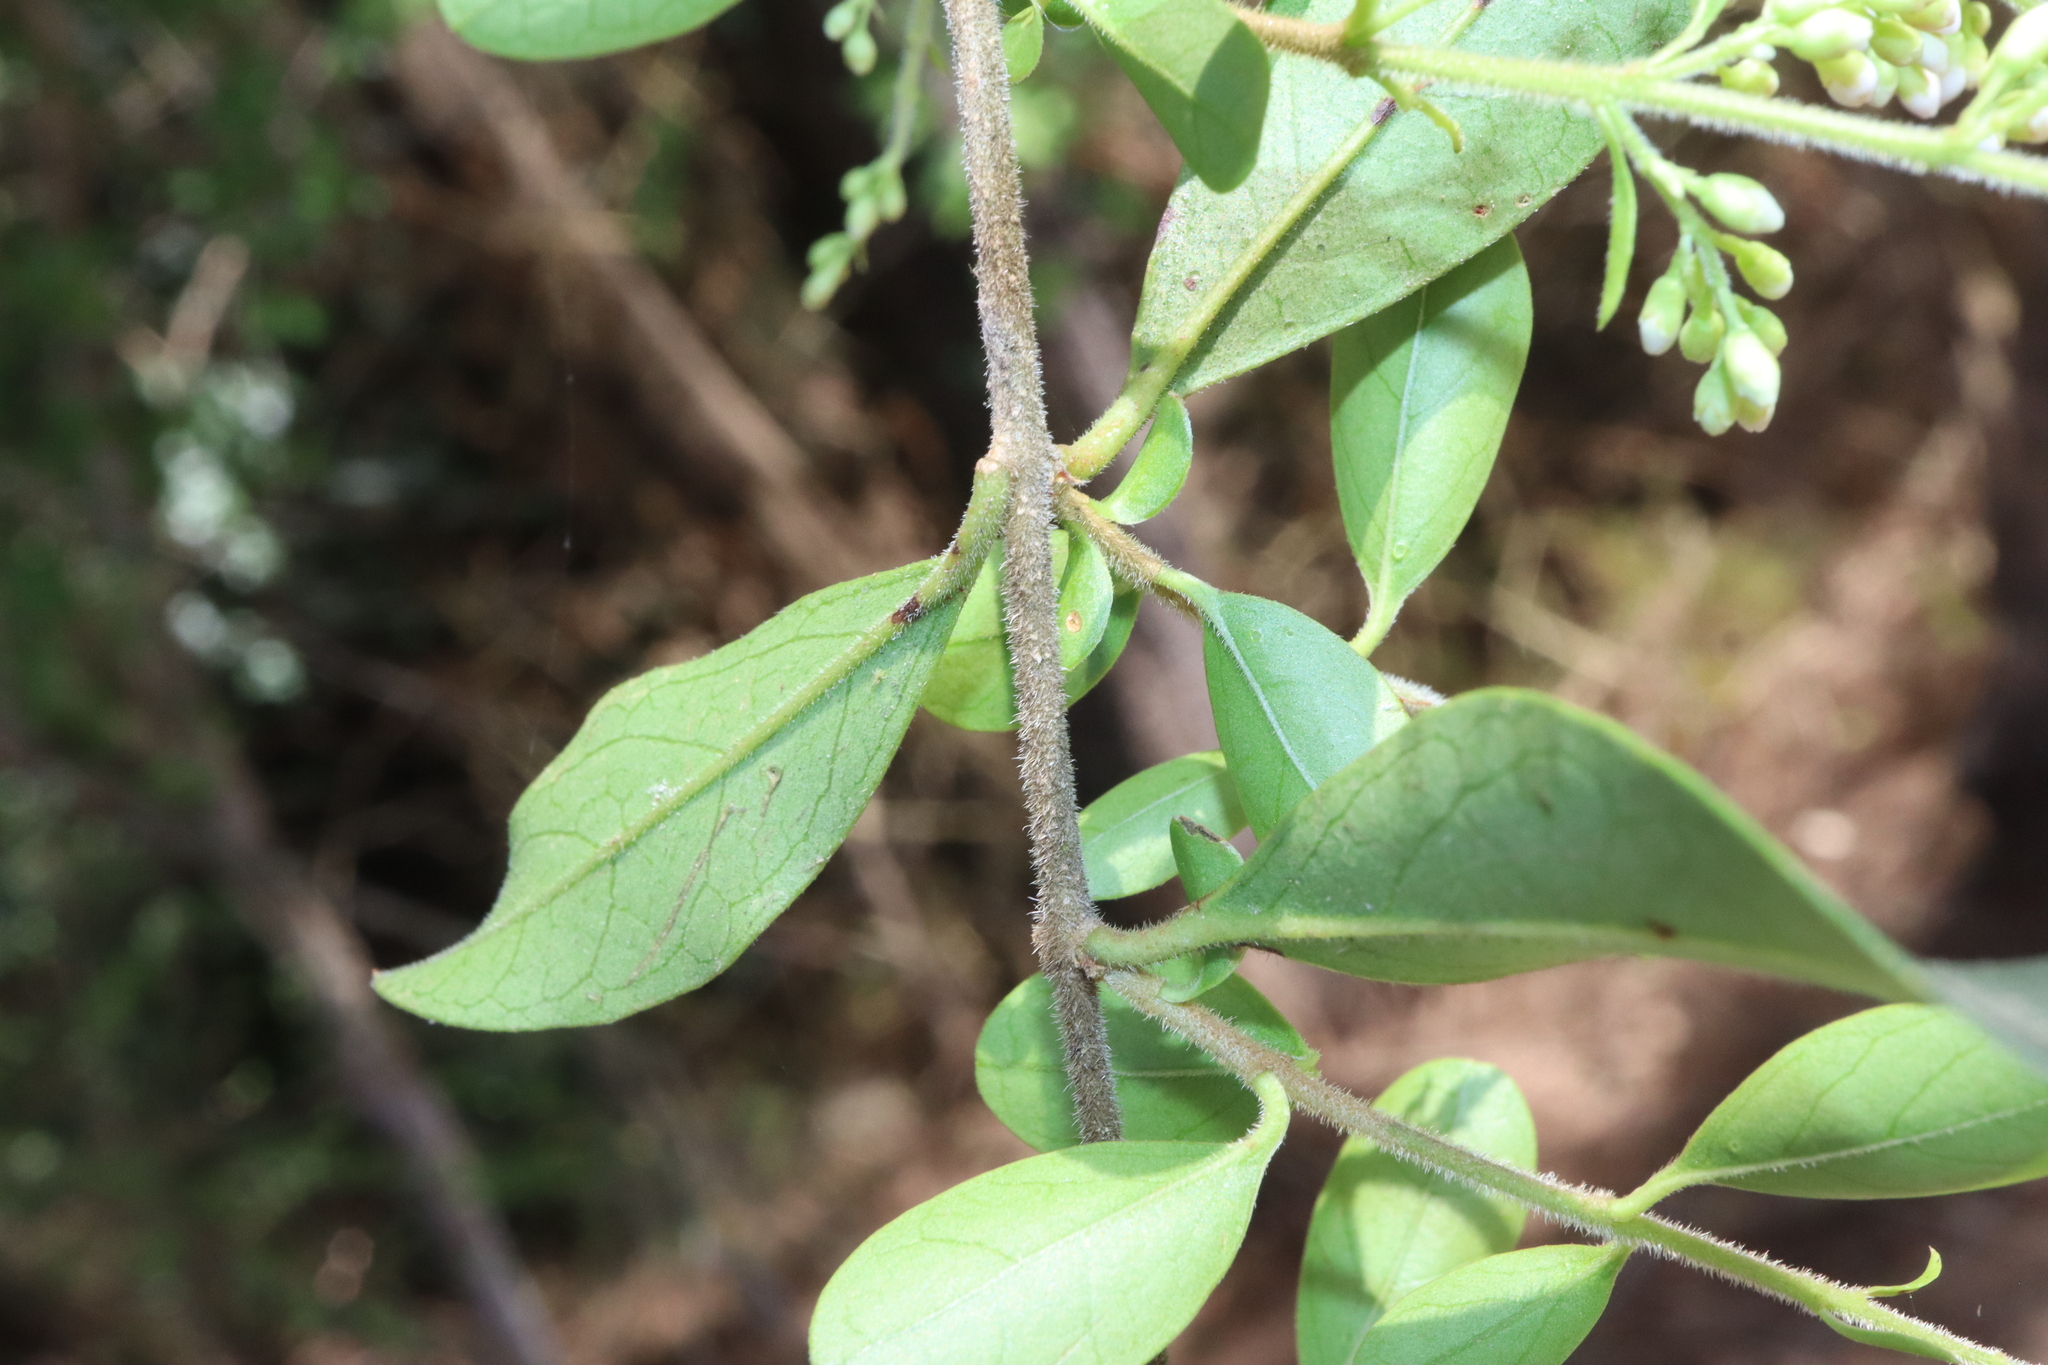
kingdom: Plantae
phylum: Tracheophyta
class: Magnoliopsida
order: Lamiales
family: Oleaceae
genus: Ligustrum
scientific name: Ligustrum sinense
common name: Chinese privet
